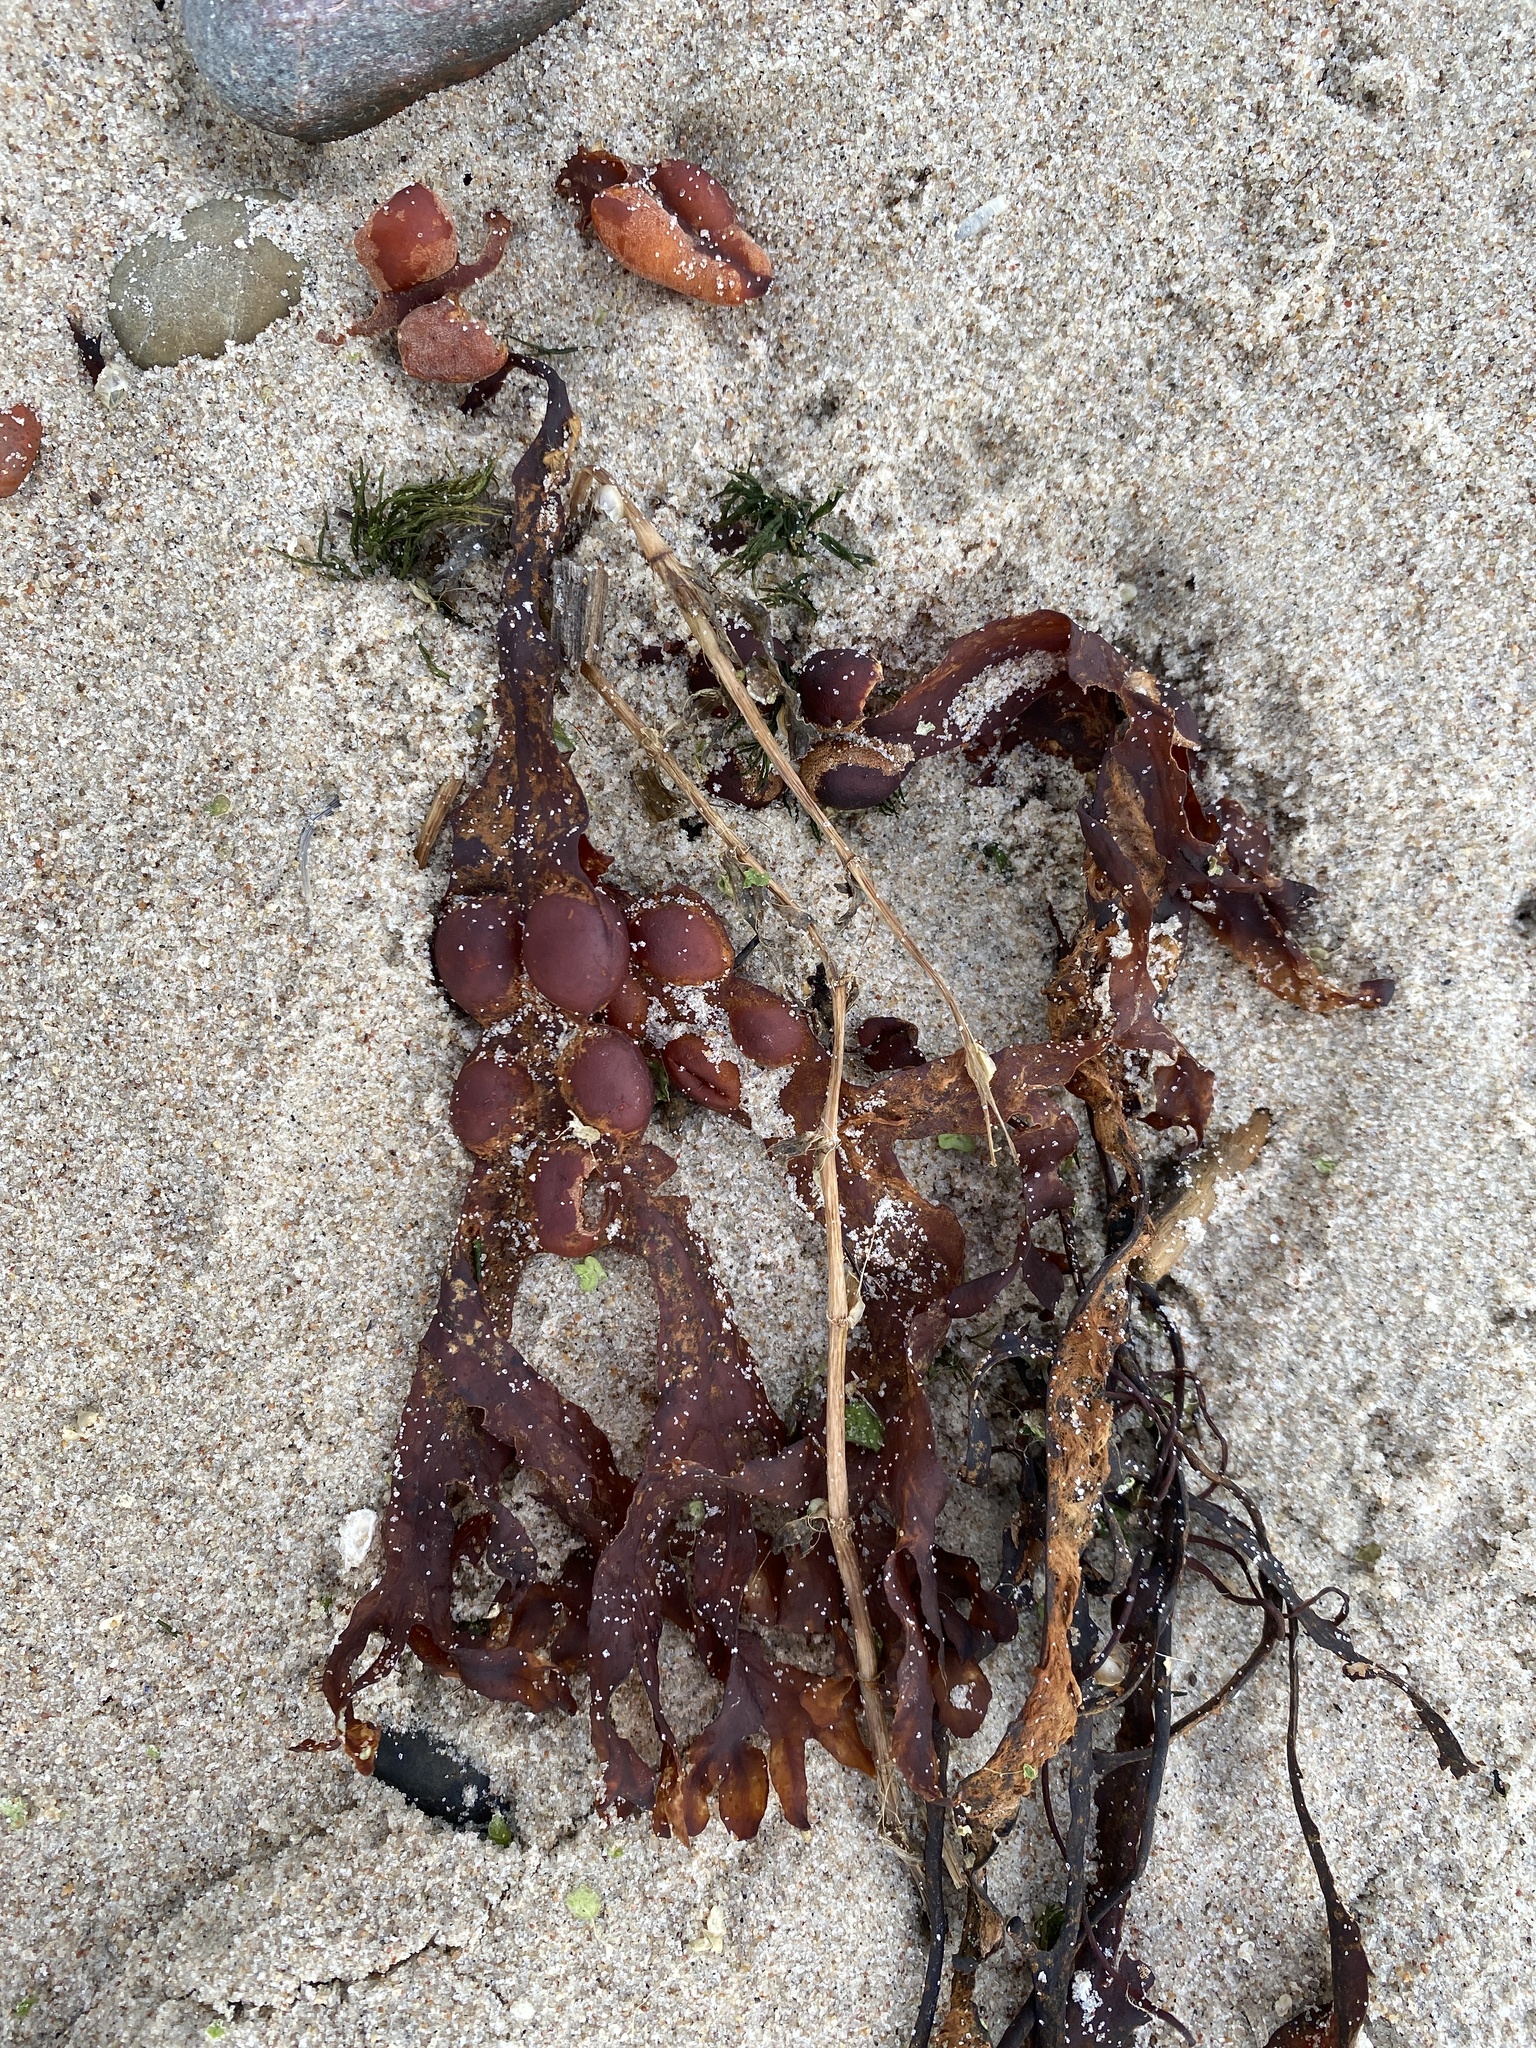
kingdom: Chromista
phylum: Ochrophyta
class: Phaeophyceae
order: Fucales
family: Fucaceae
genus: Fucus
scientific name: Fucus vesiculosus
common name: Bladder wrack
